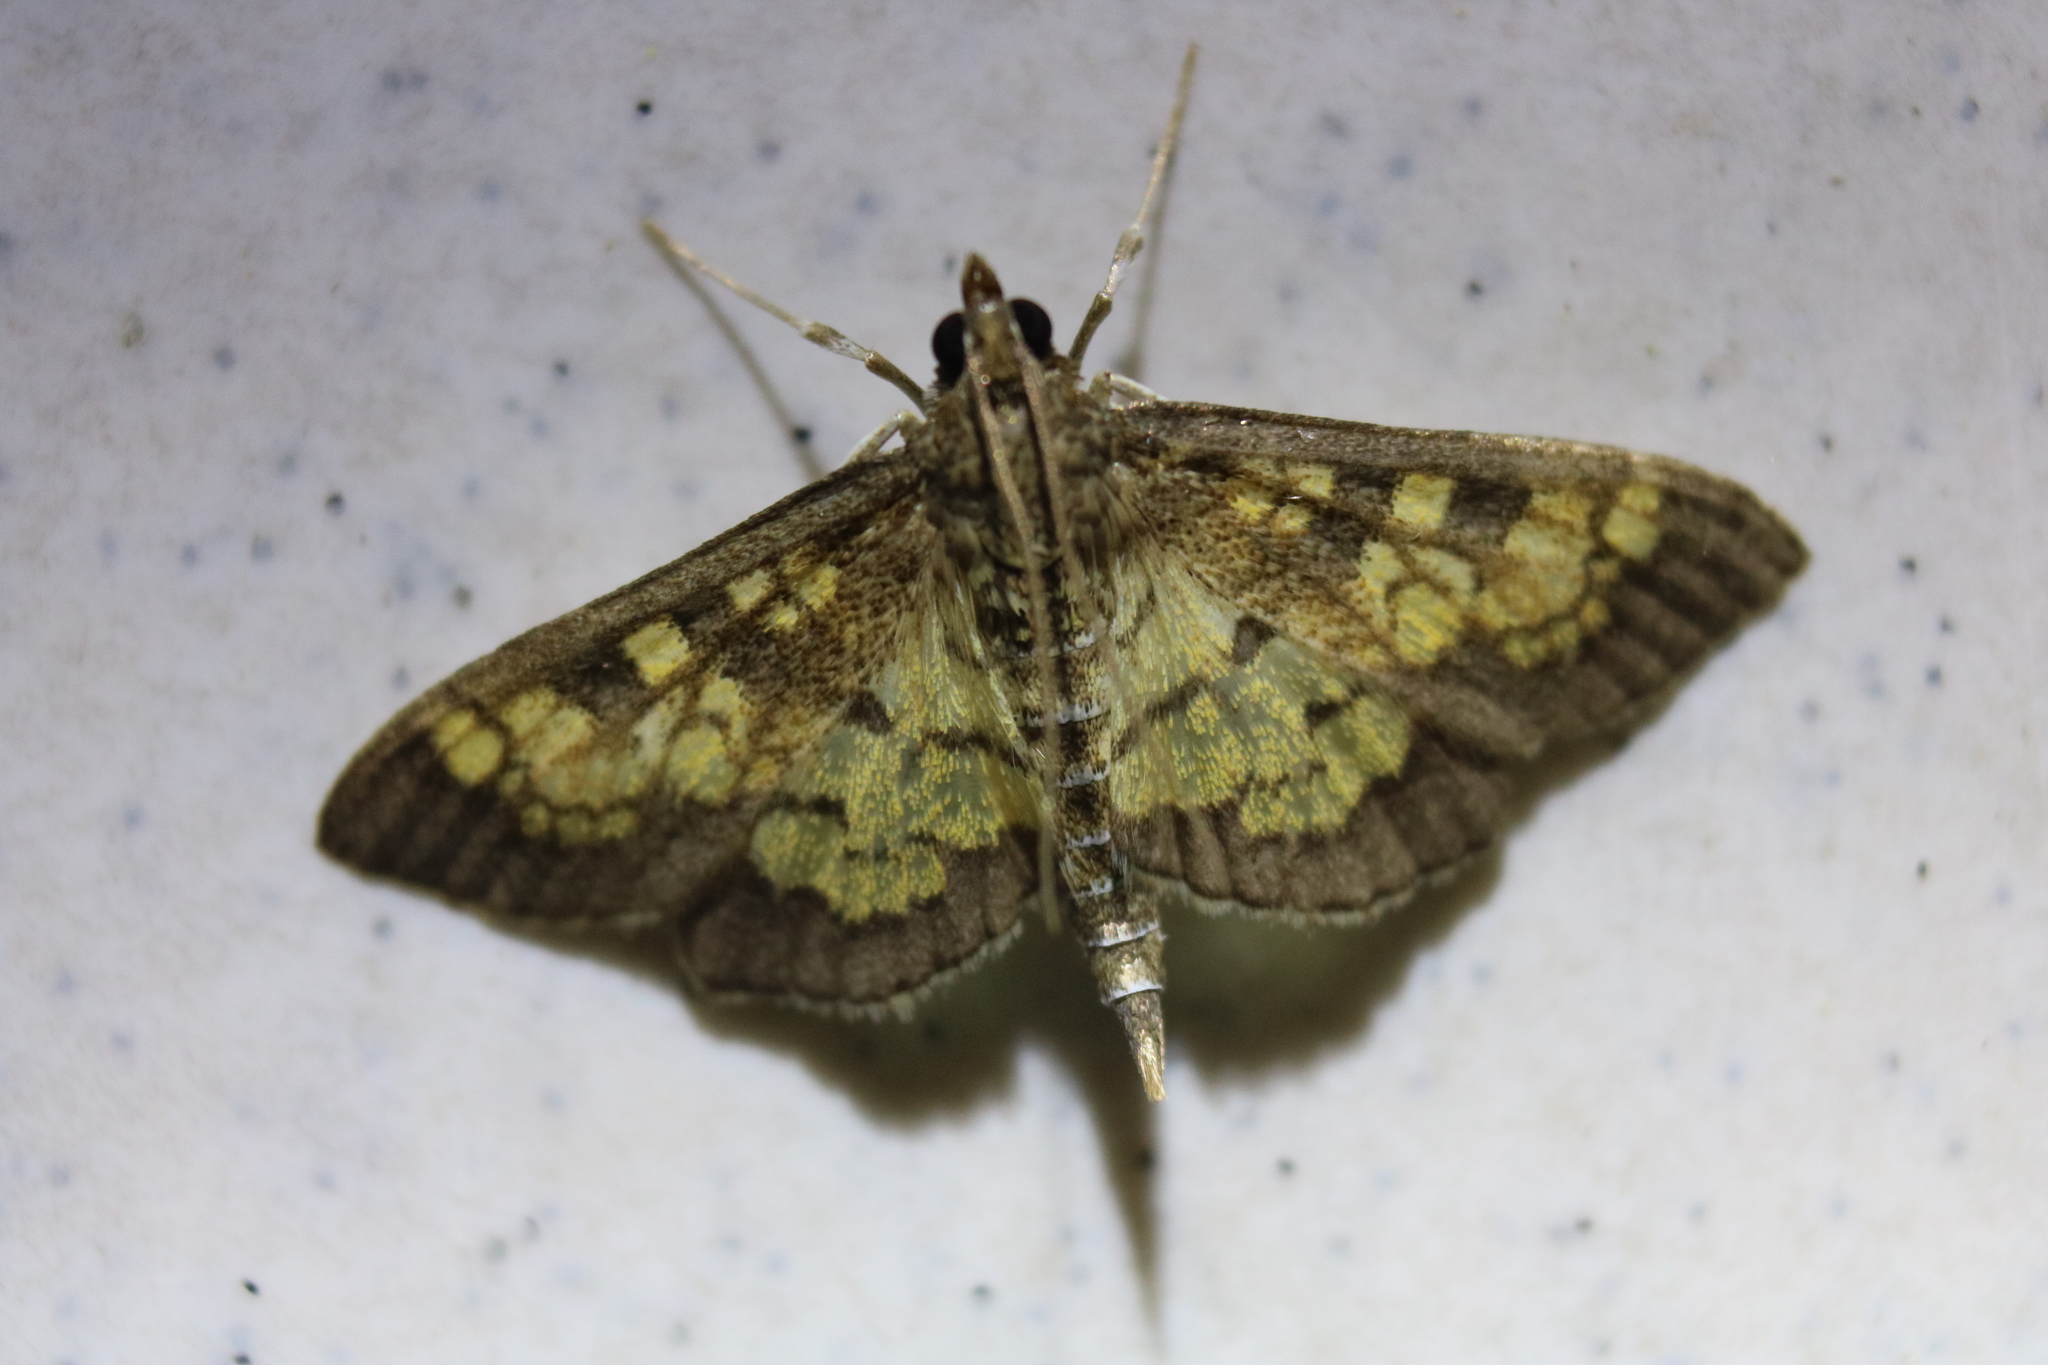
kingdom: Animalia
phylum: Arthropoda
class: Insecta
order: Lepidoptera
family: Crambidae
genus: Epipagis
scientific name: Epipagis adipaloides
